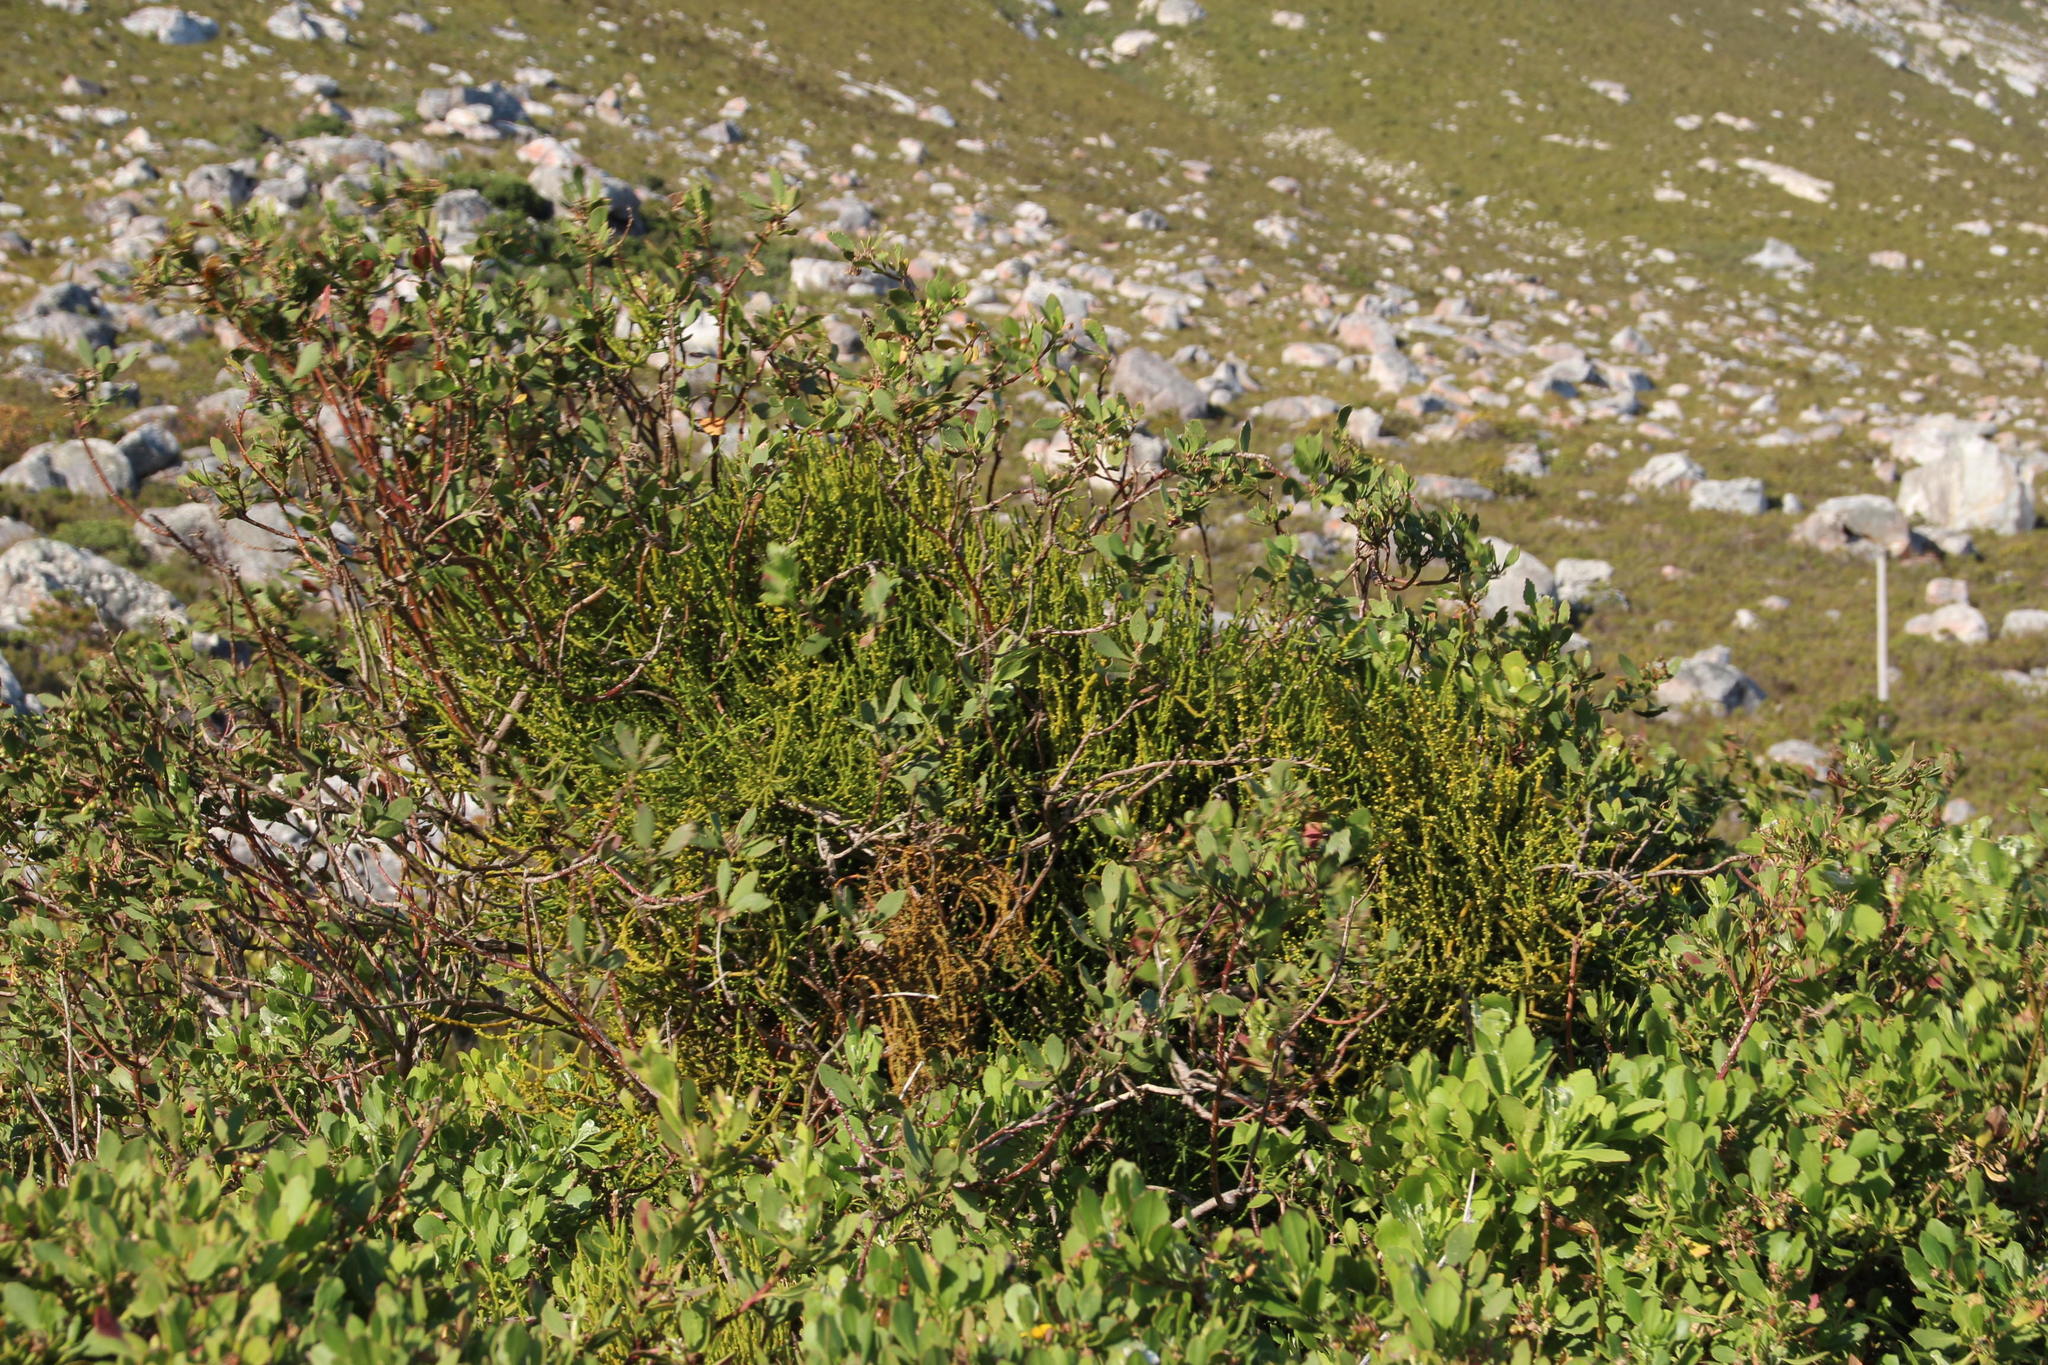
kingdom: Plantae
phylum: Tracheophyta
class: Magnoliopsida
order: Asterales
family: Asteraceae
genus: Osteospermum
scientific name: Osteospermum moniliferum
